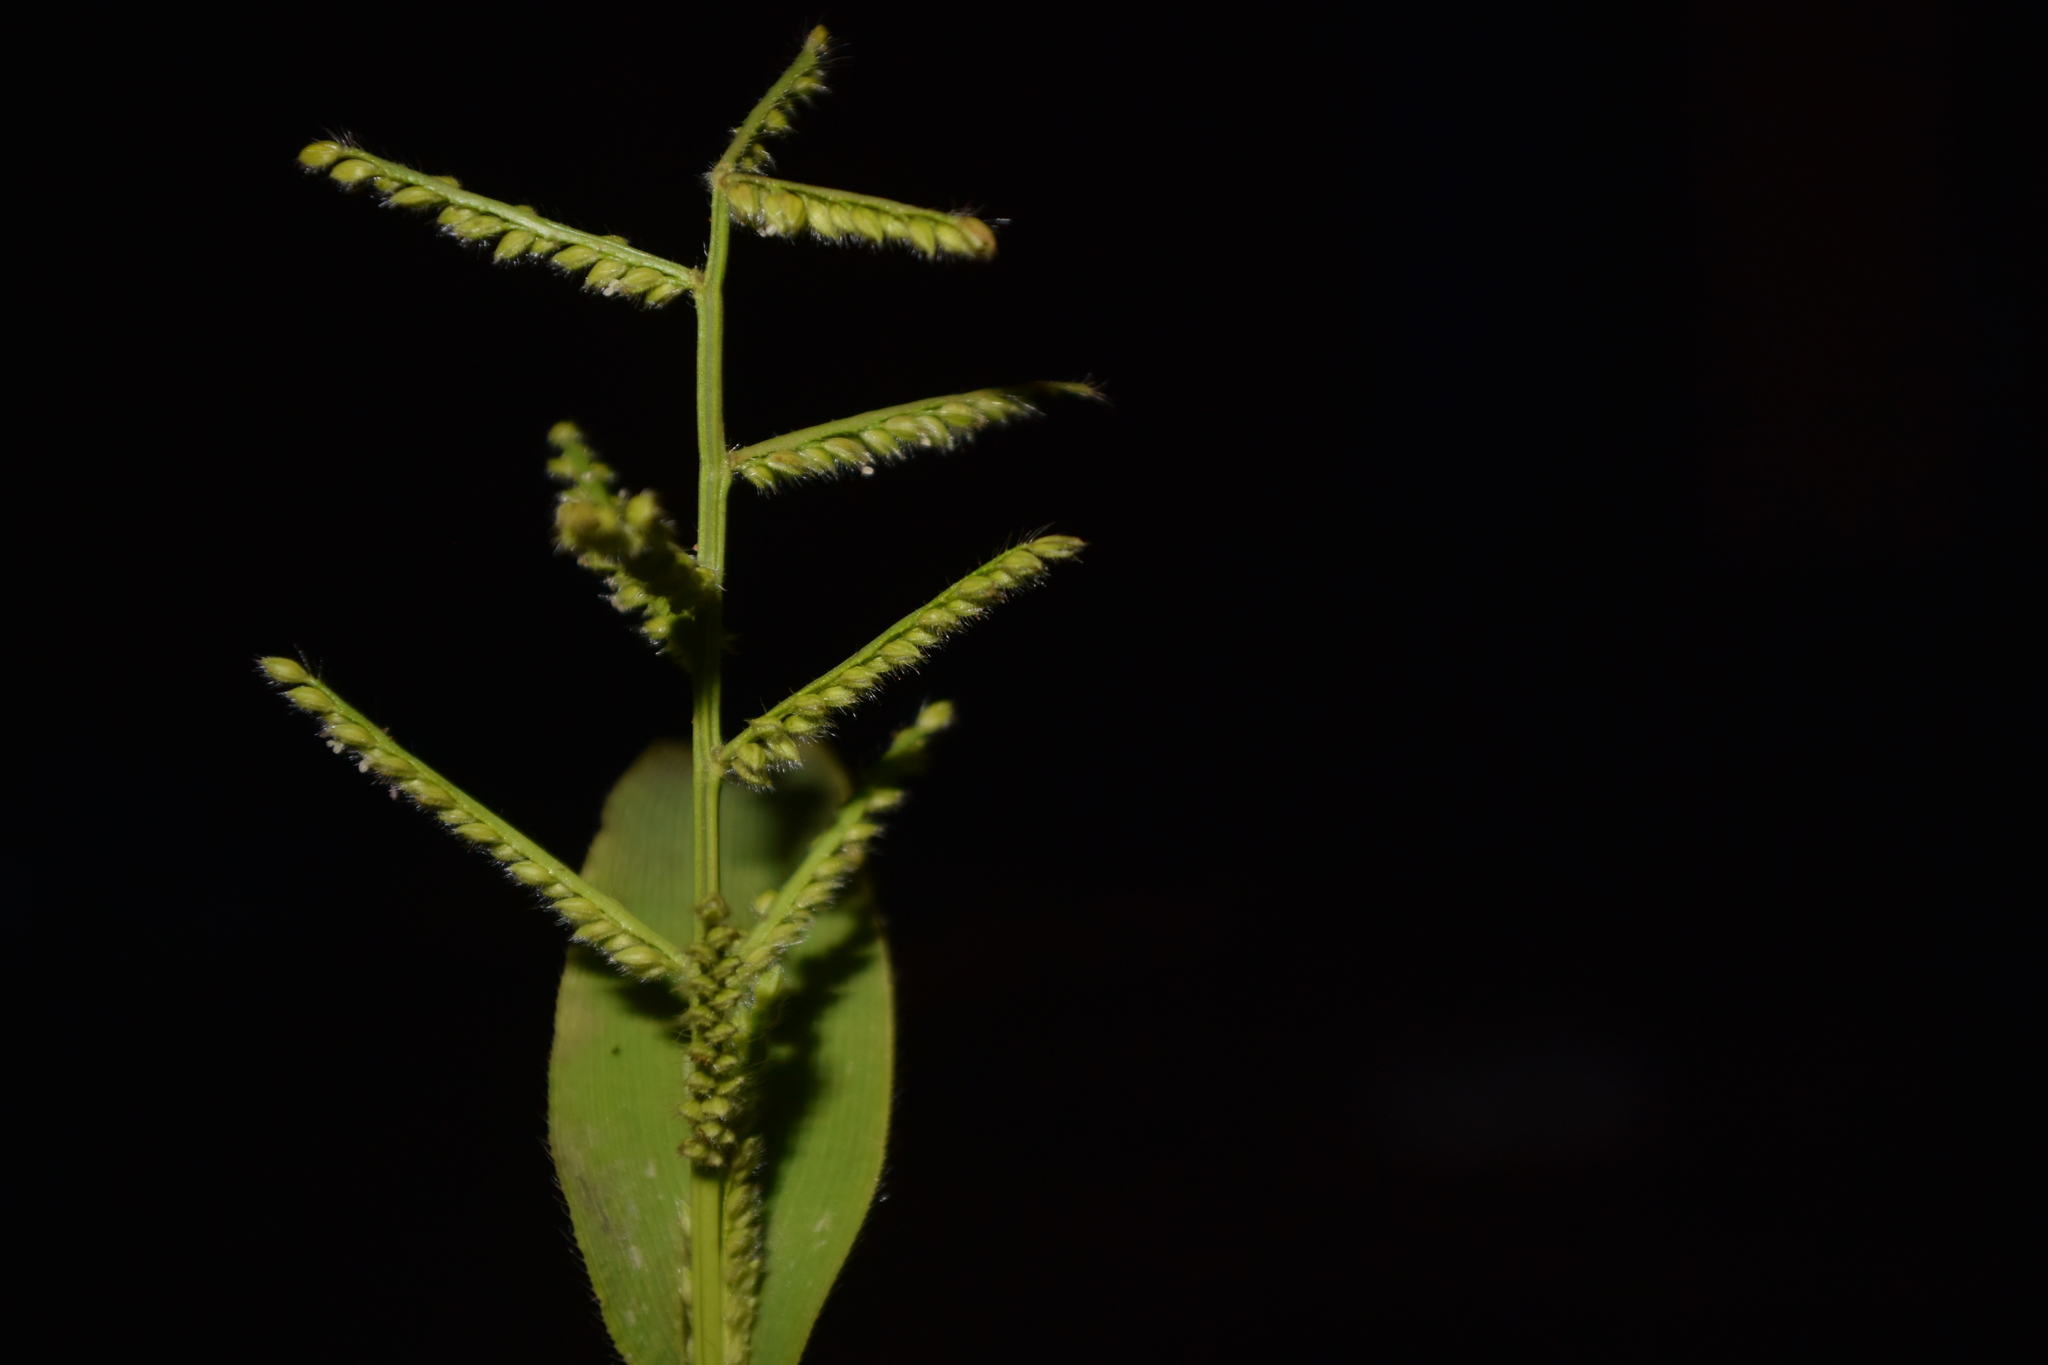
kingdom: Plantae
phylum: Tracheophyta
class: Liliopsida
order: Poales
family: Poaceae
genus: Paspalum
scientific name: Paspalum canarae
